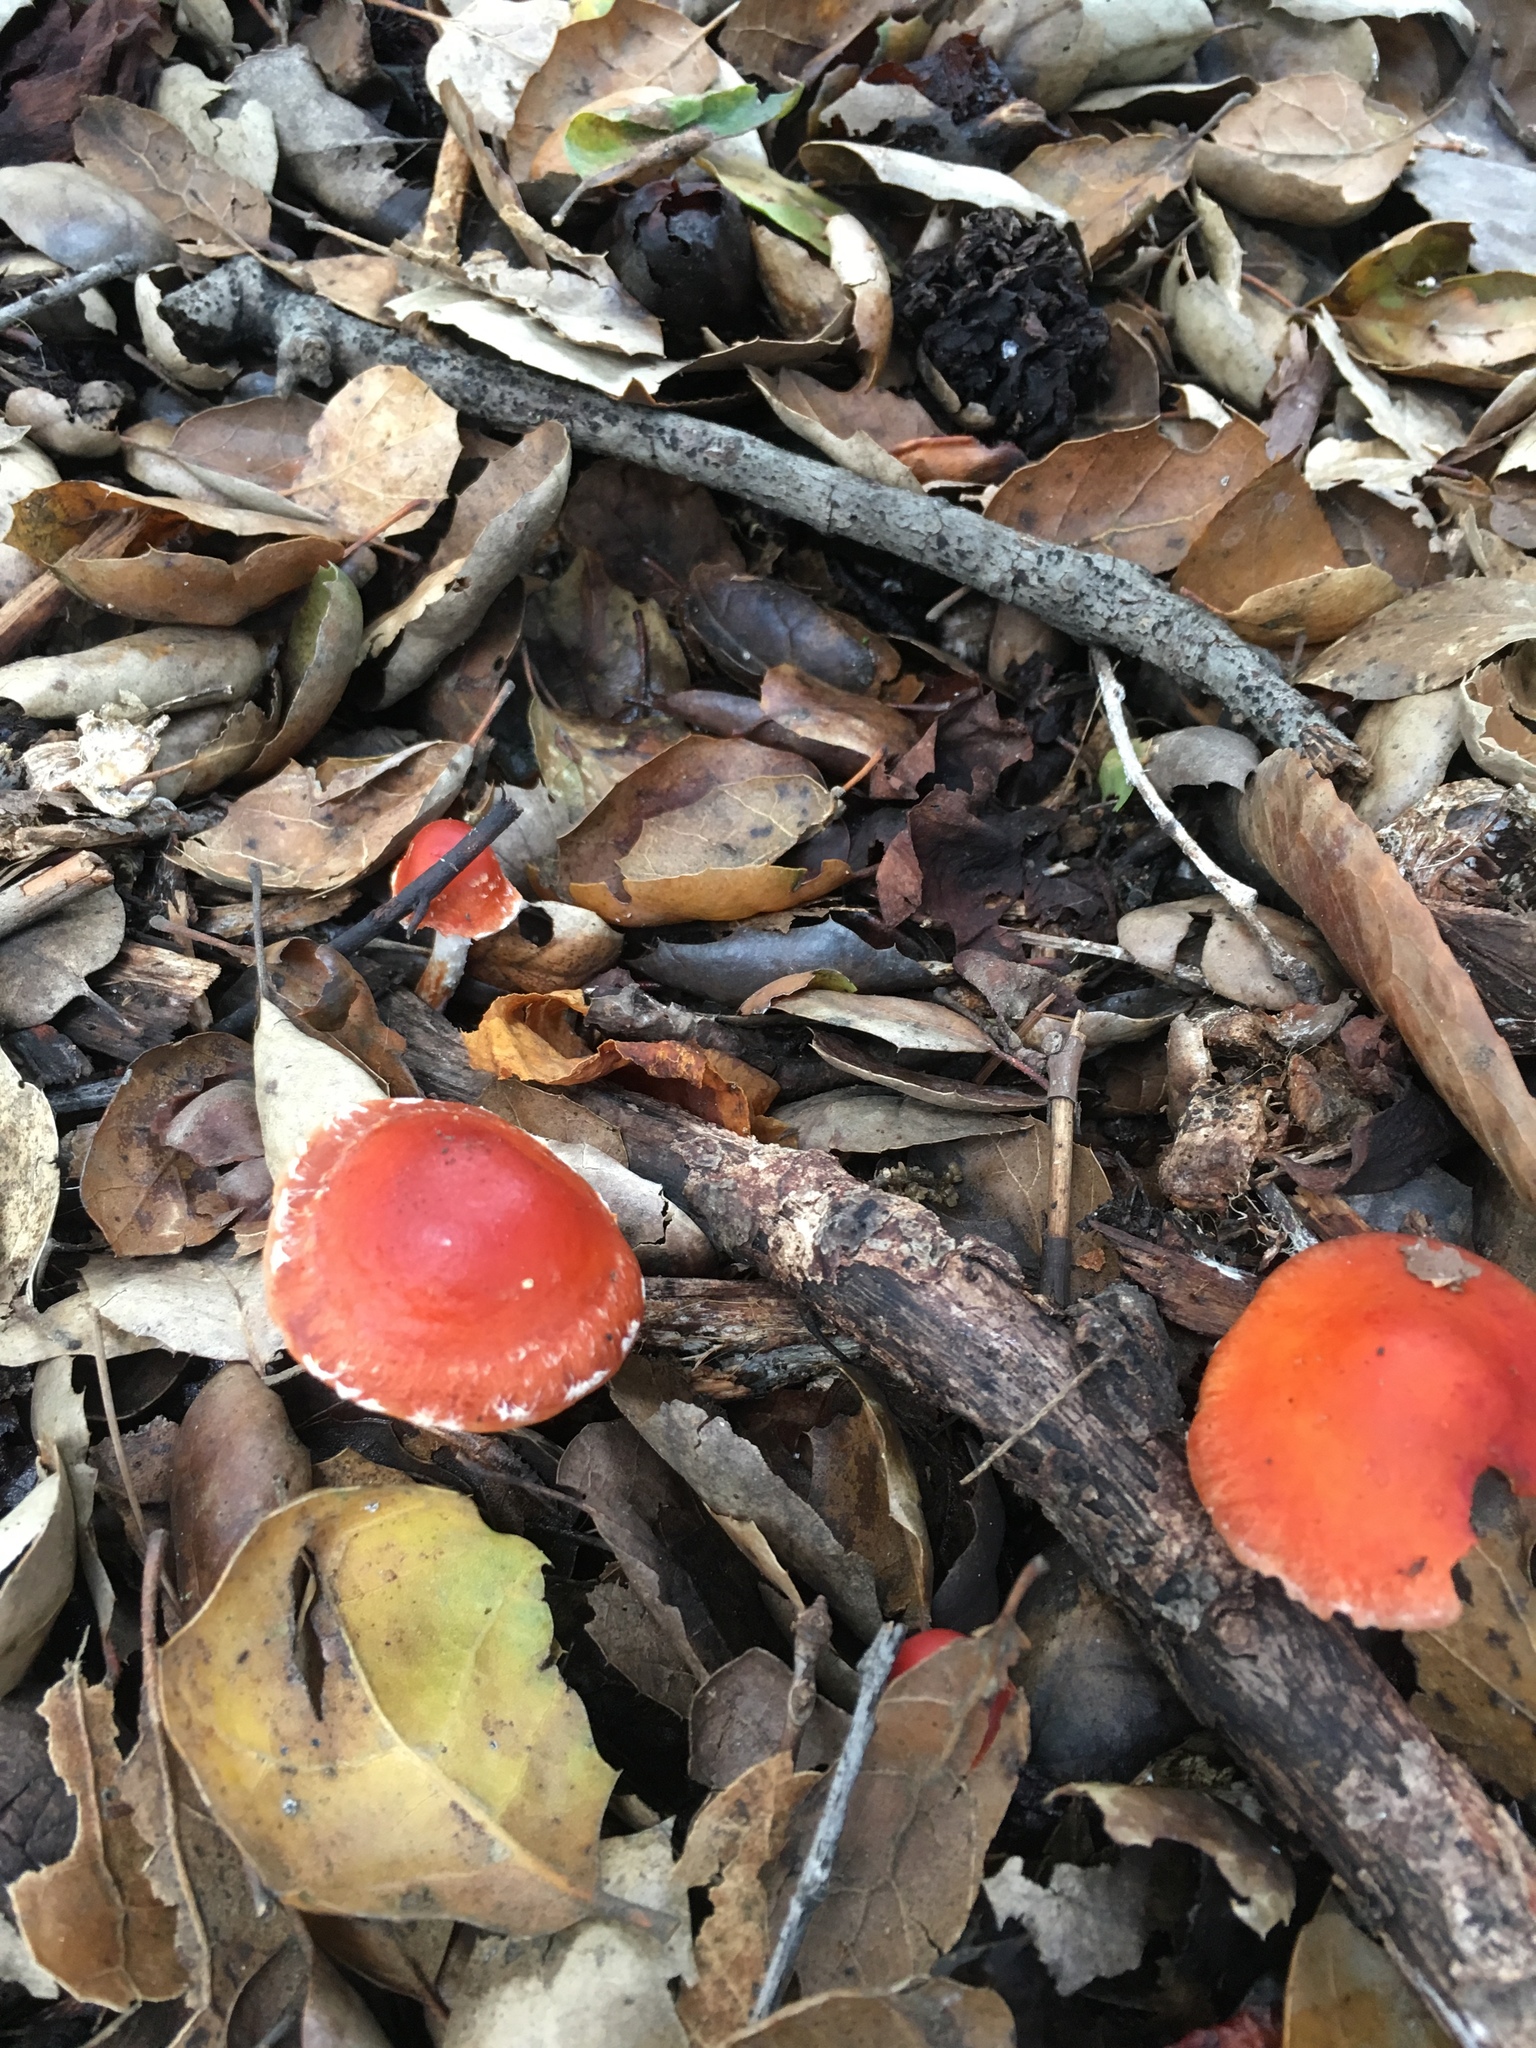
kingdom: Fungi
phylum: Basidiomycota
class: Agaricomycetes
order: Agaricales
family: Strophariaceae
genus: Leratiomyces
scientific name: Leratiomyces ceres
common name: Redlead roundhead
